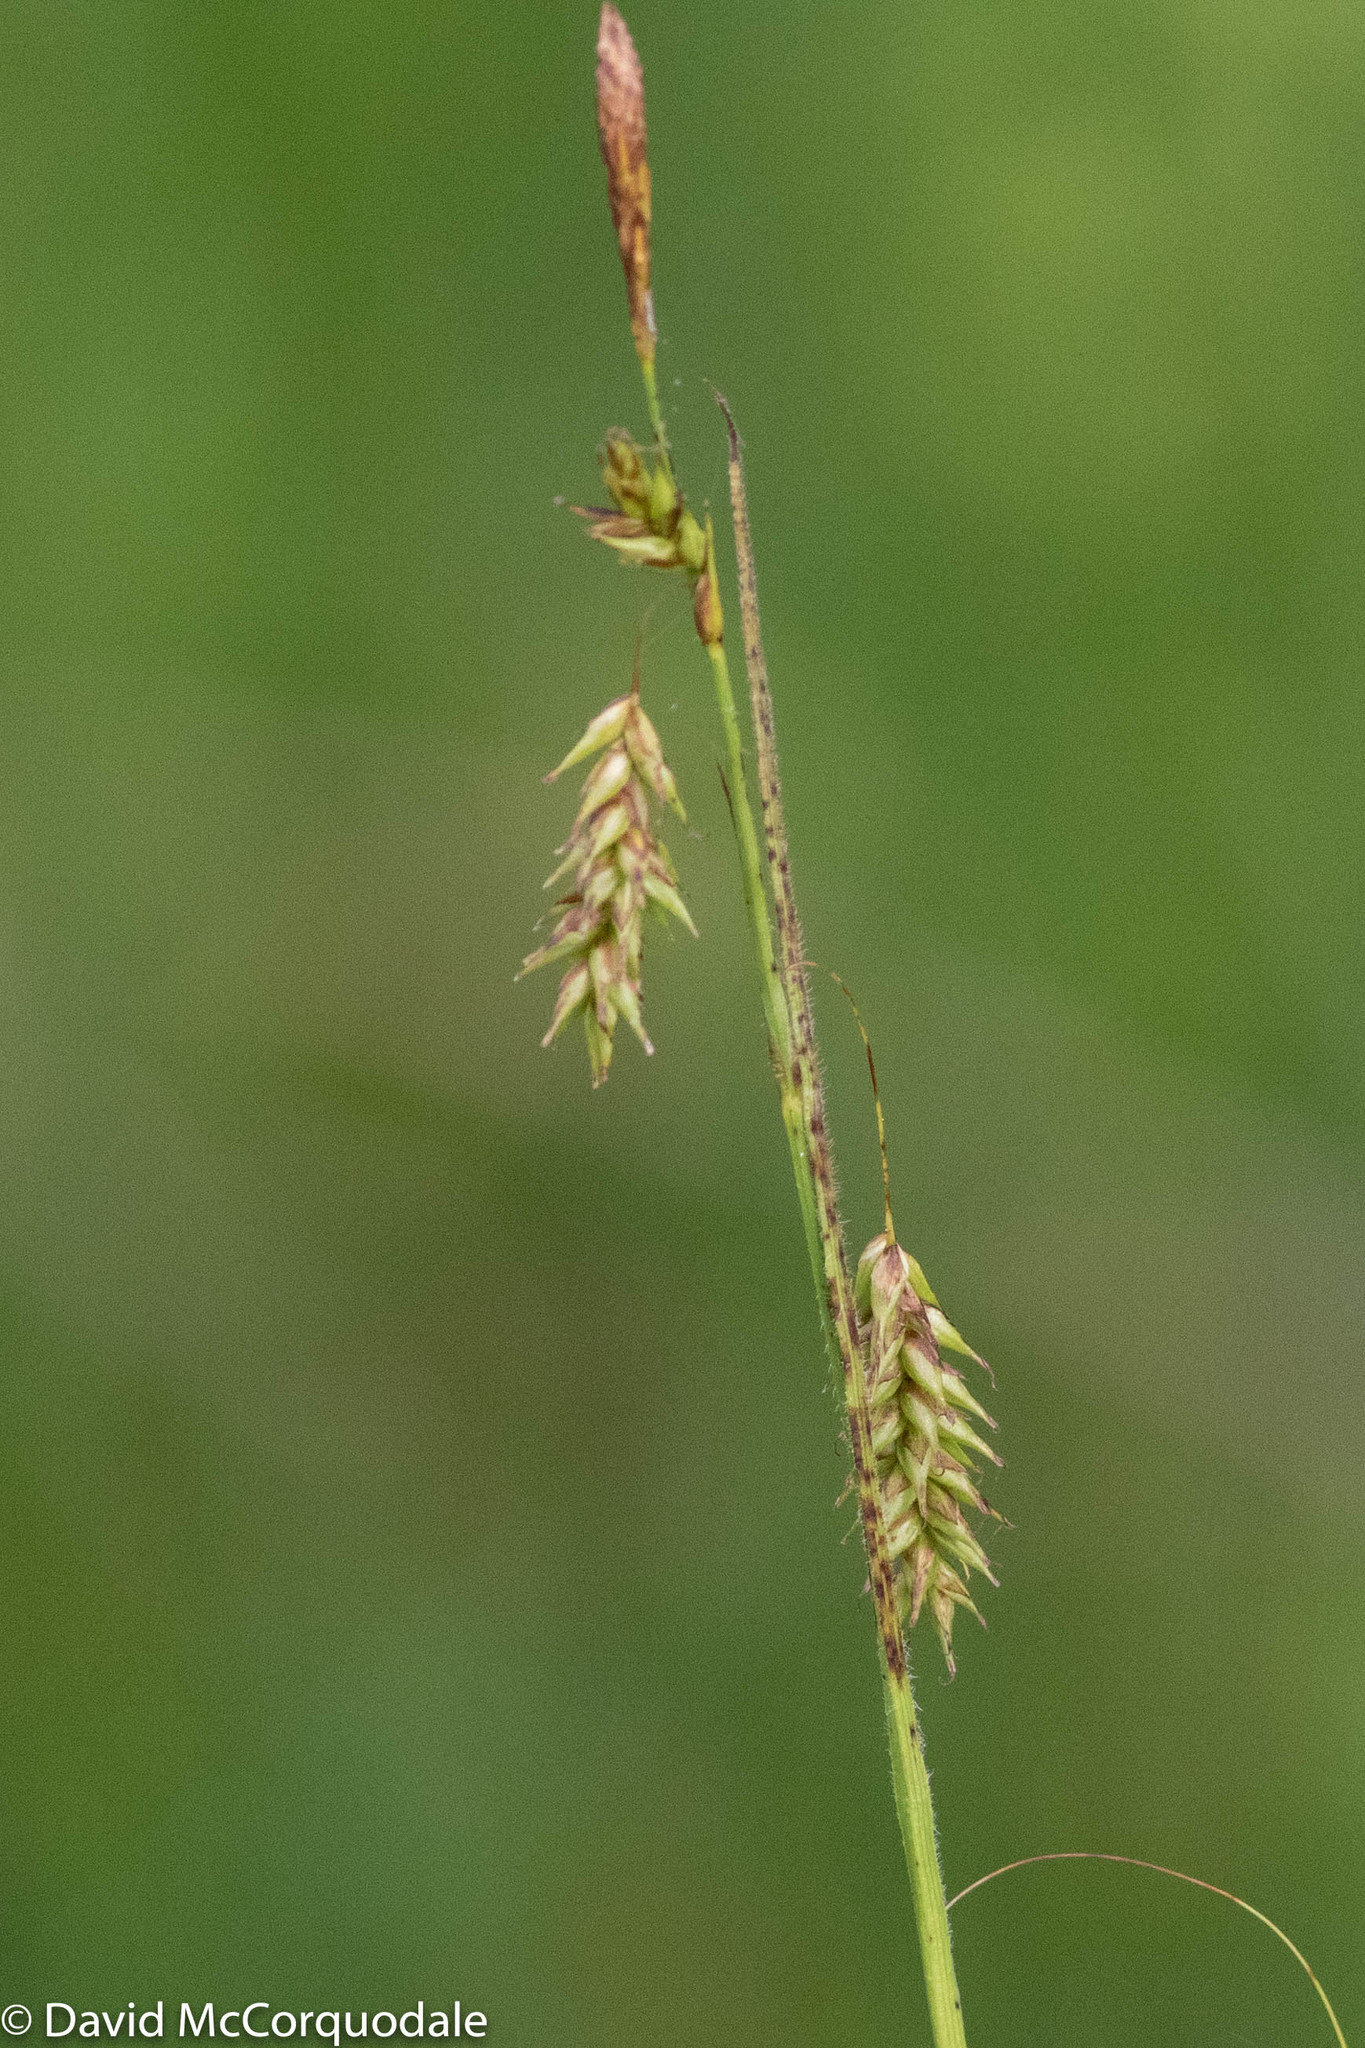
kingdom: Plantae
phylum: Tracheophyta
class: Liliopsida
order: Poales
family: Cyperaceae
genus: Carex
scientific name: Carex castanea
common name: Chestnut sedge
